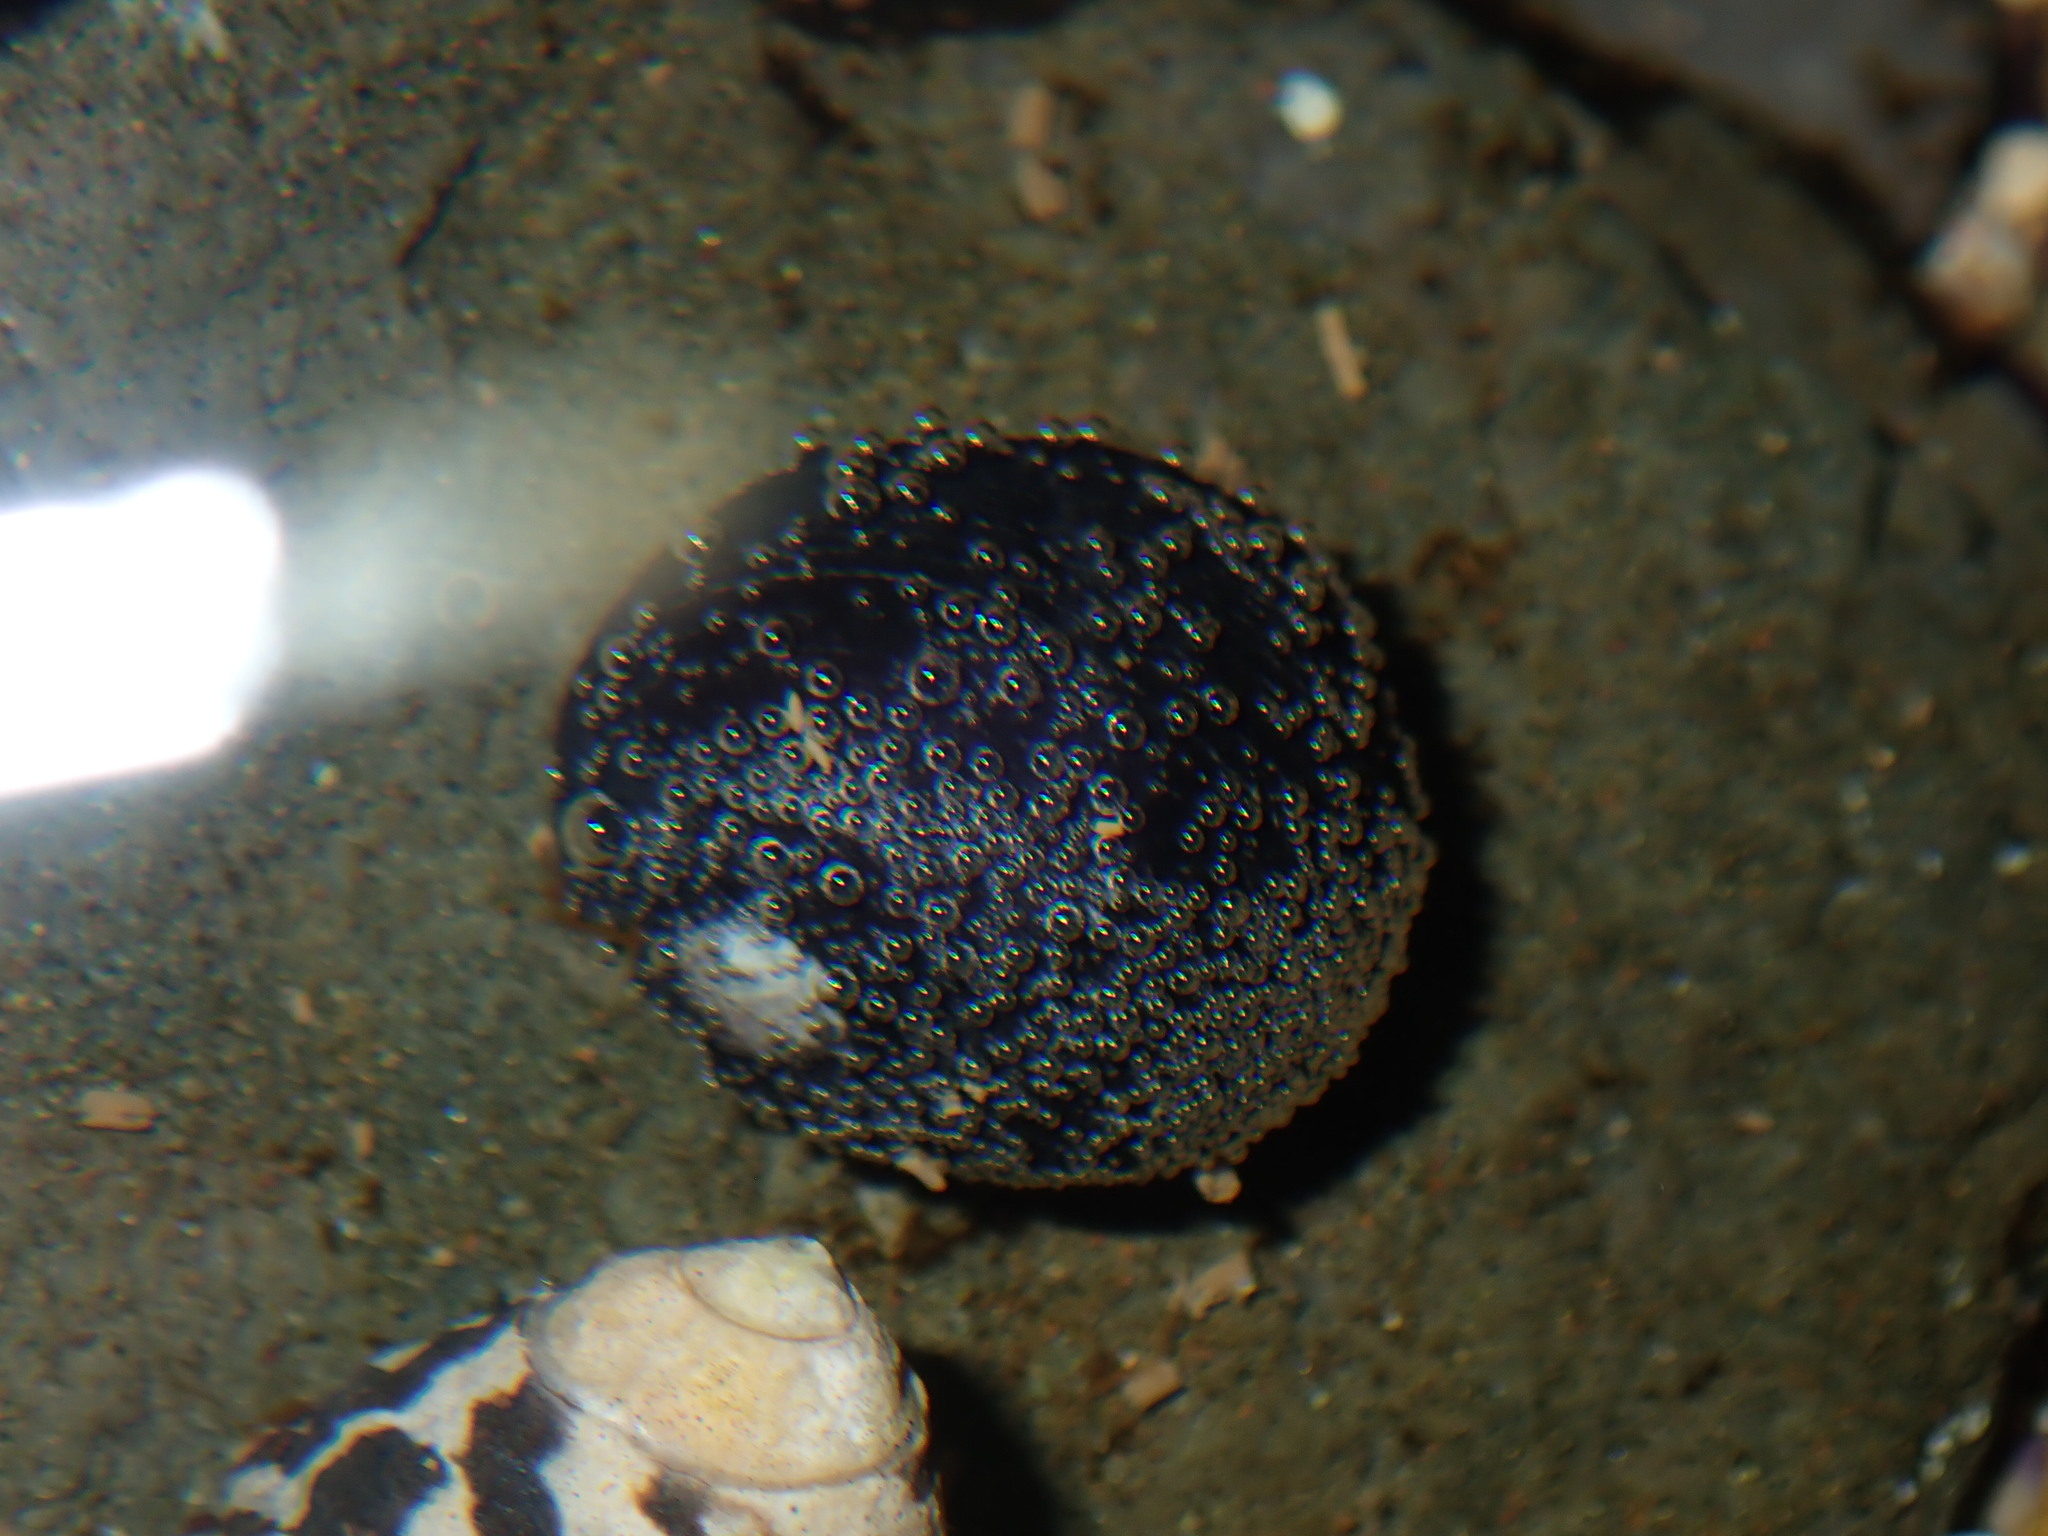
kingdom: Animalia
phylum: Mollusca
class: Gastropoda
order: Cycloneritida
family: Neritidae
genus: Nerita
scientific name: Nerita melanotragus
